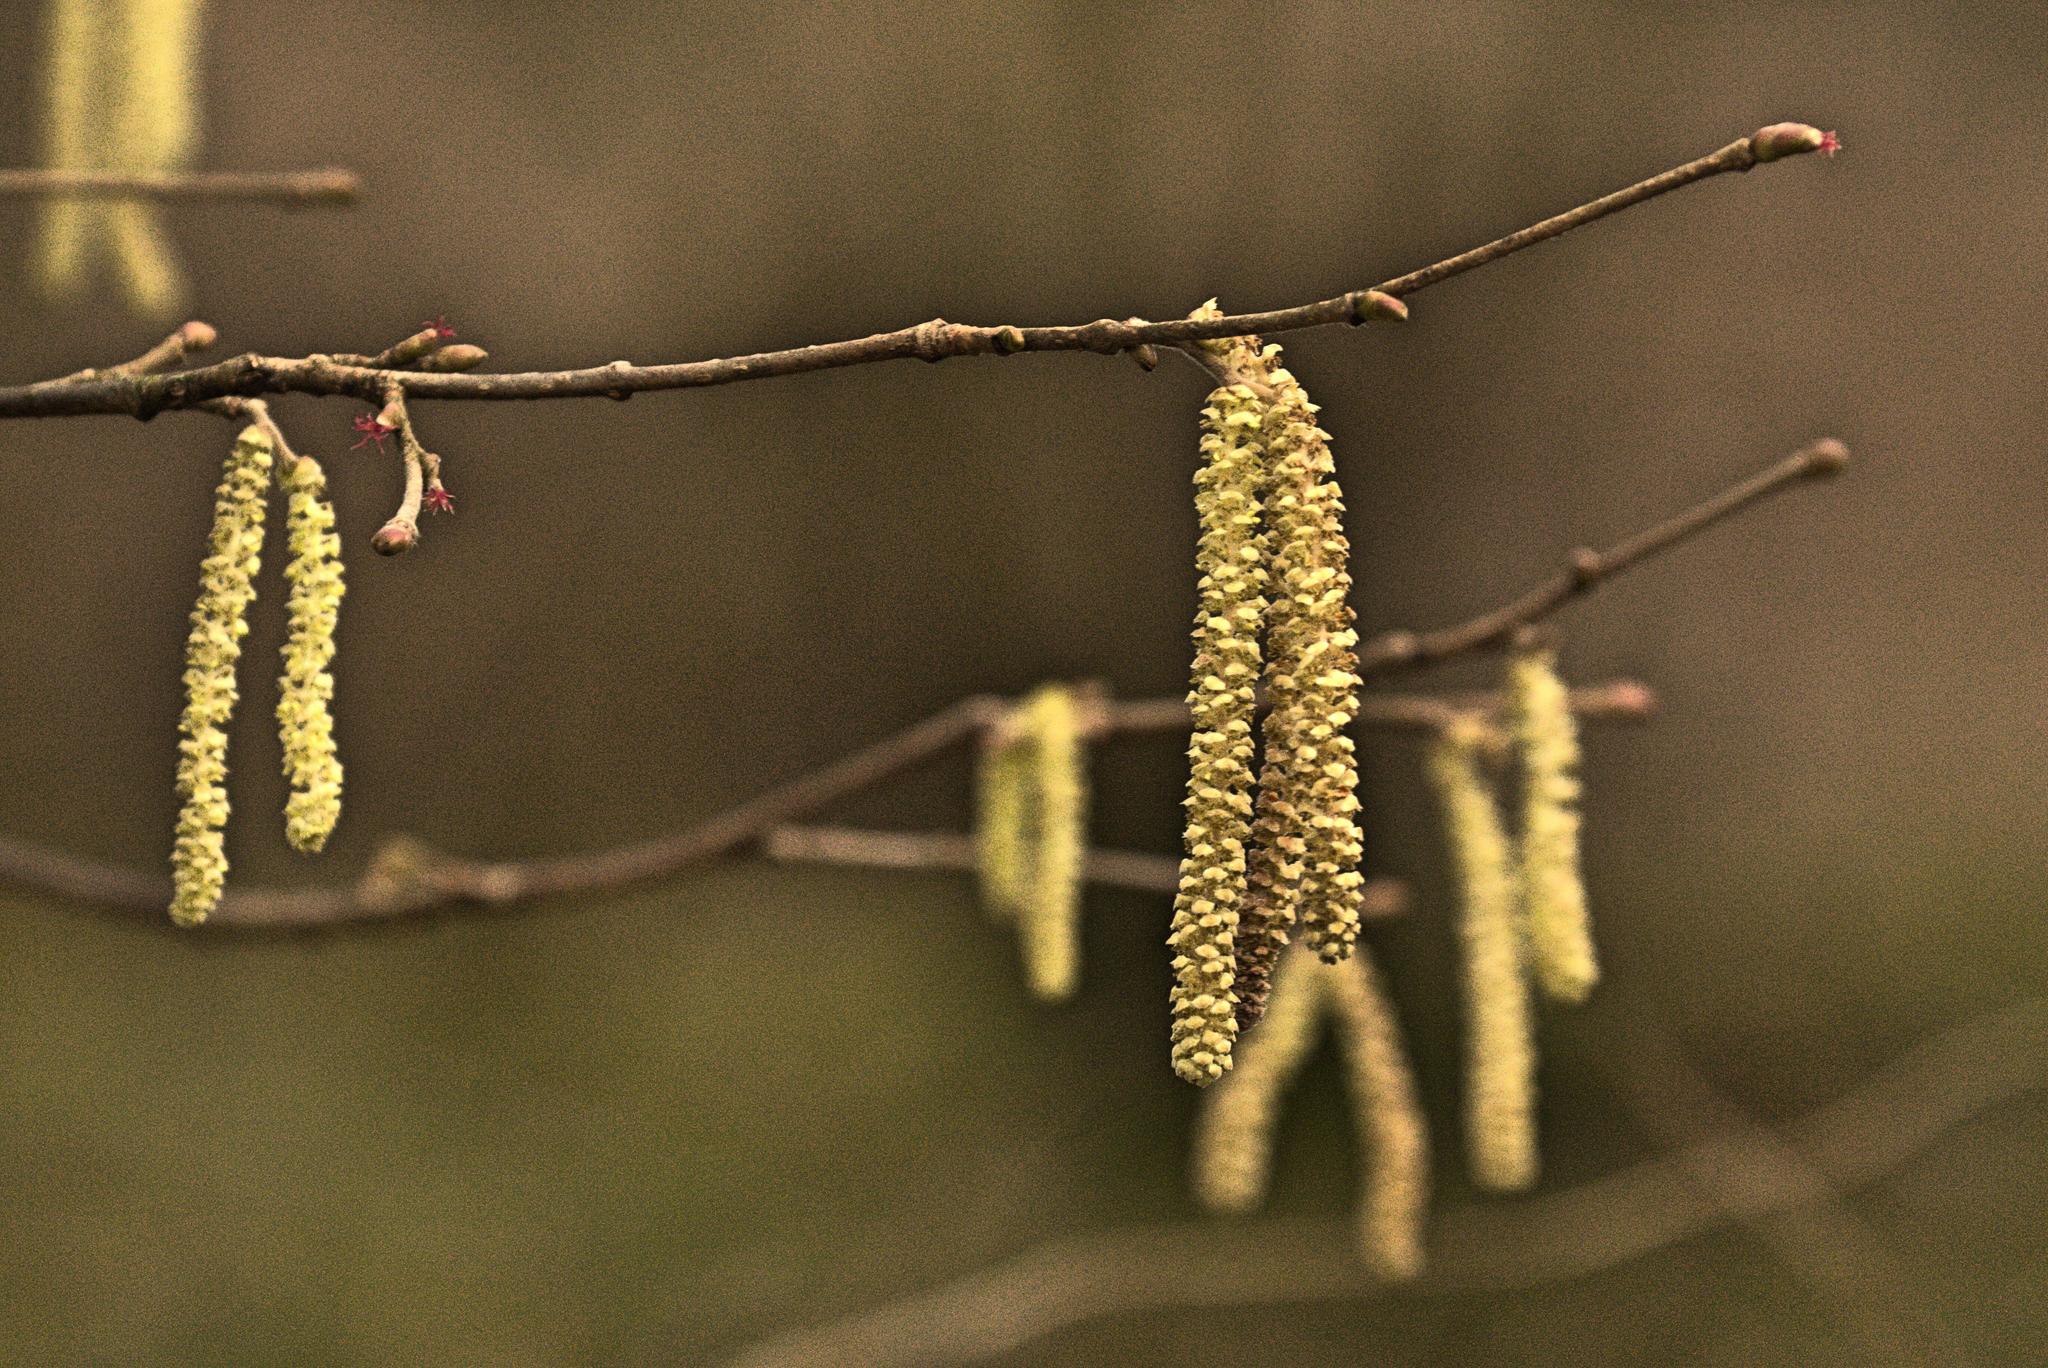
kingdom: Plantae
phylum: Tracheophyta
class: Magnoliopsida
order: Fagales
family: Betulaceae
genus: Corylus
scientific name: Corylus avellana
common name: European hazel
